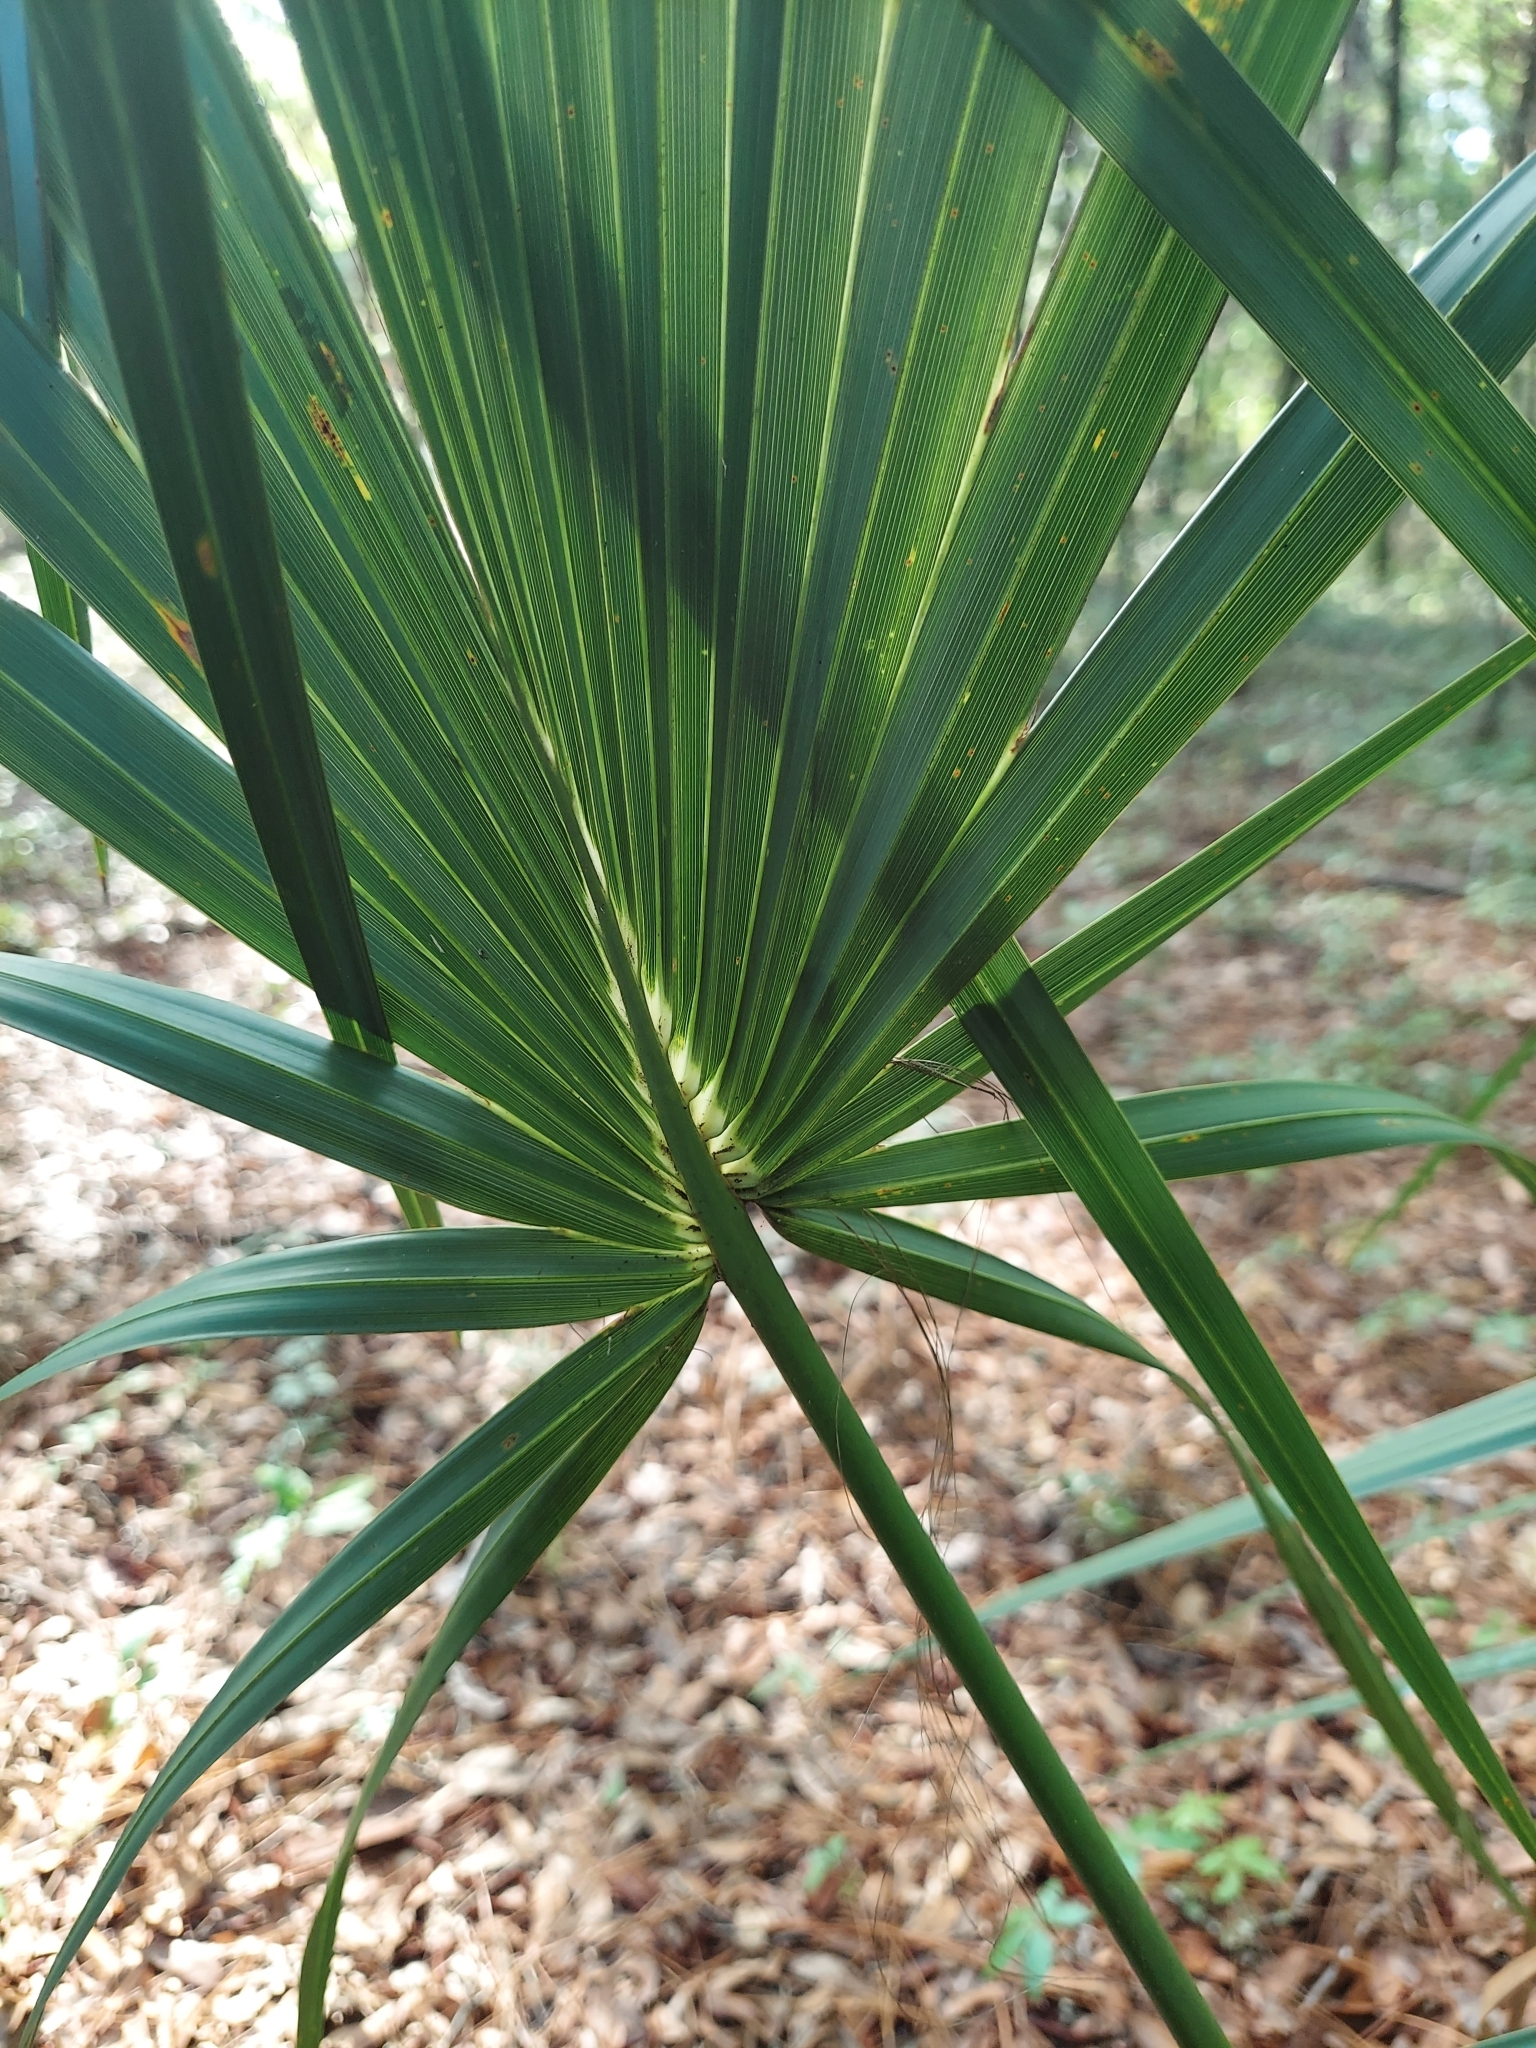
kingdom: Plantae
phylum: Tracheophyta
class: Liliopsida
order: Arecales
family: Arecaceae
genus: Sabal
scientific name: Sabal palmetto
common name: Blue palmetto
